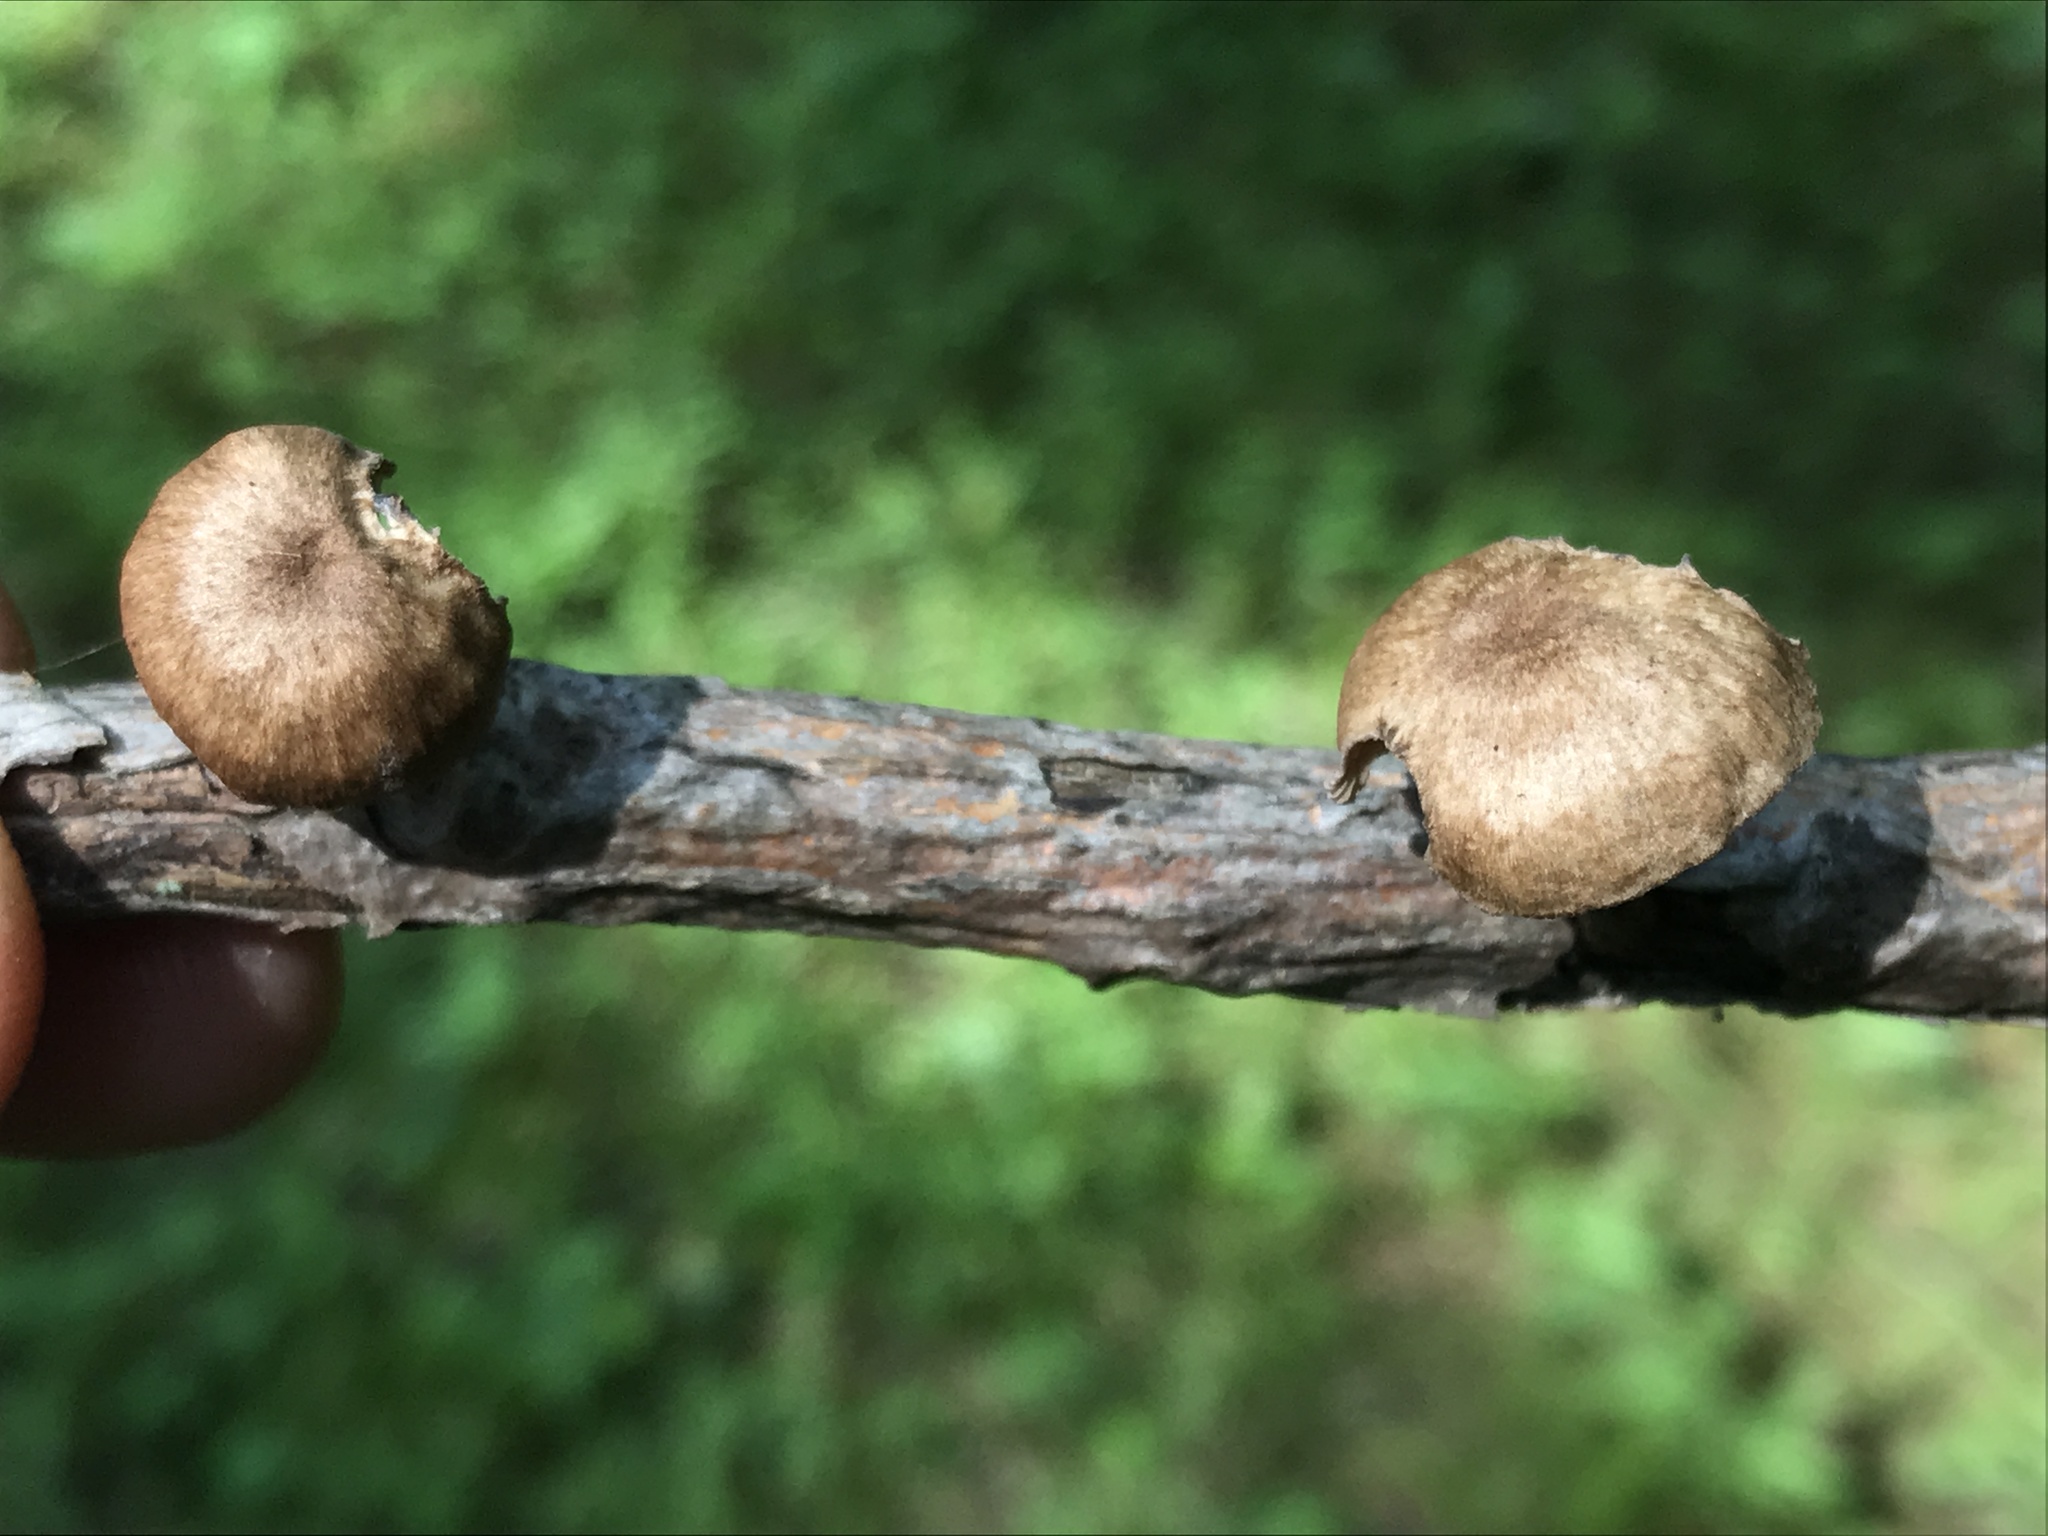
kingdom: Fungi
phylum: Basidiomycota
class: Agaricomycetes
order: Agaricales
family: Omphalotaceae
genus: Collybiopsis
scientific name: Collybiopsis dichroa
